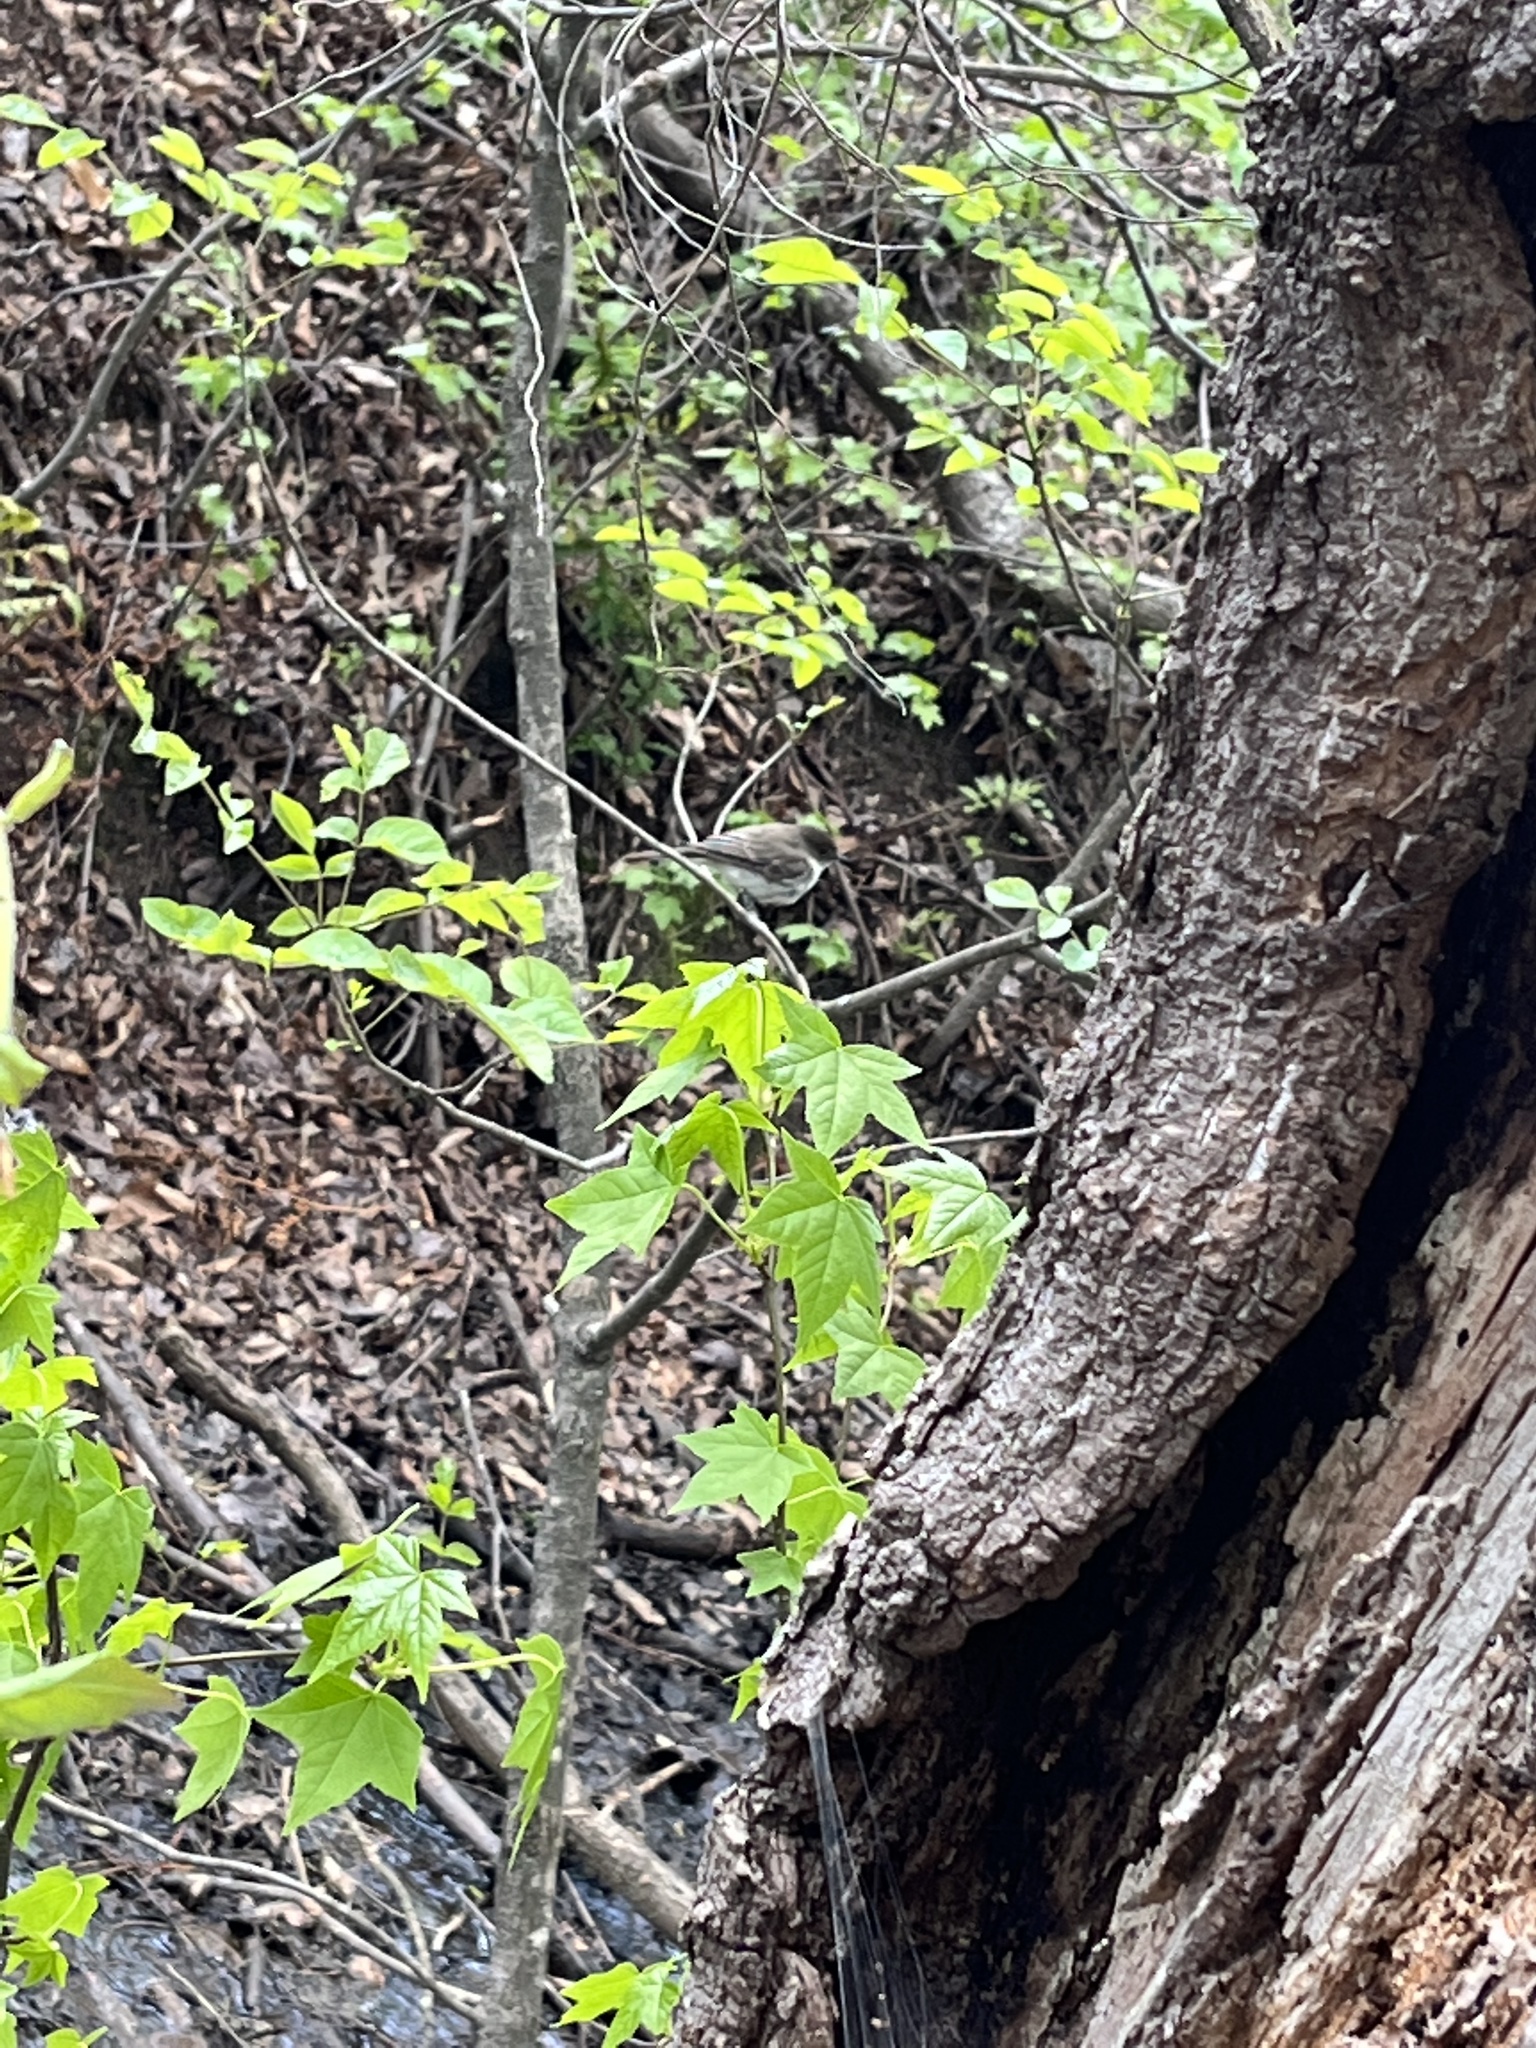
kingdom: Animalia
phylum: Chordata
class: Aves
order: Passeriformes
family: Tyrannidae
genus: Sayornis
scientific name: Sayornis phoebe
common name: Eastern phoebe
